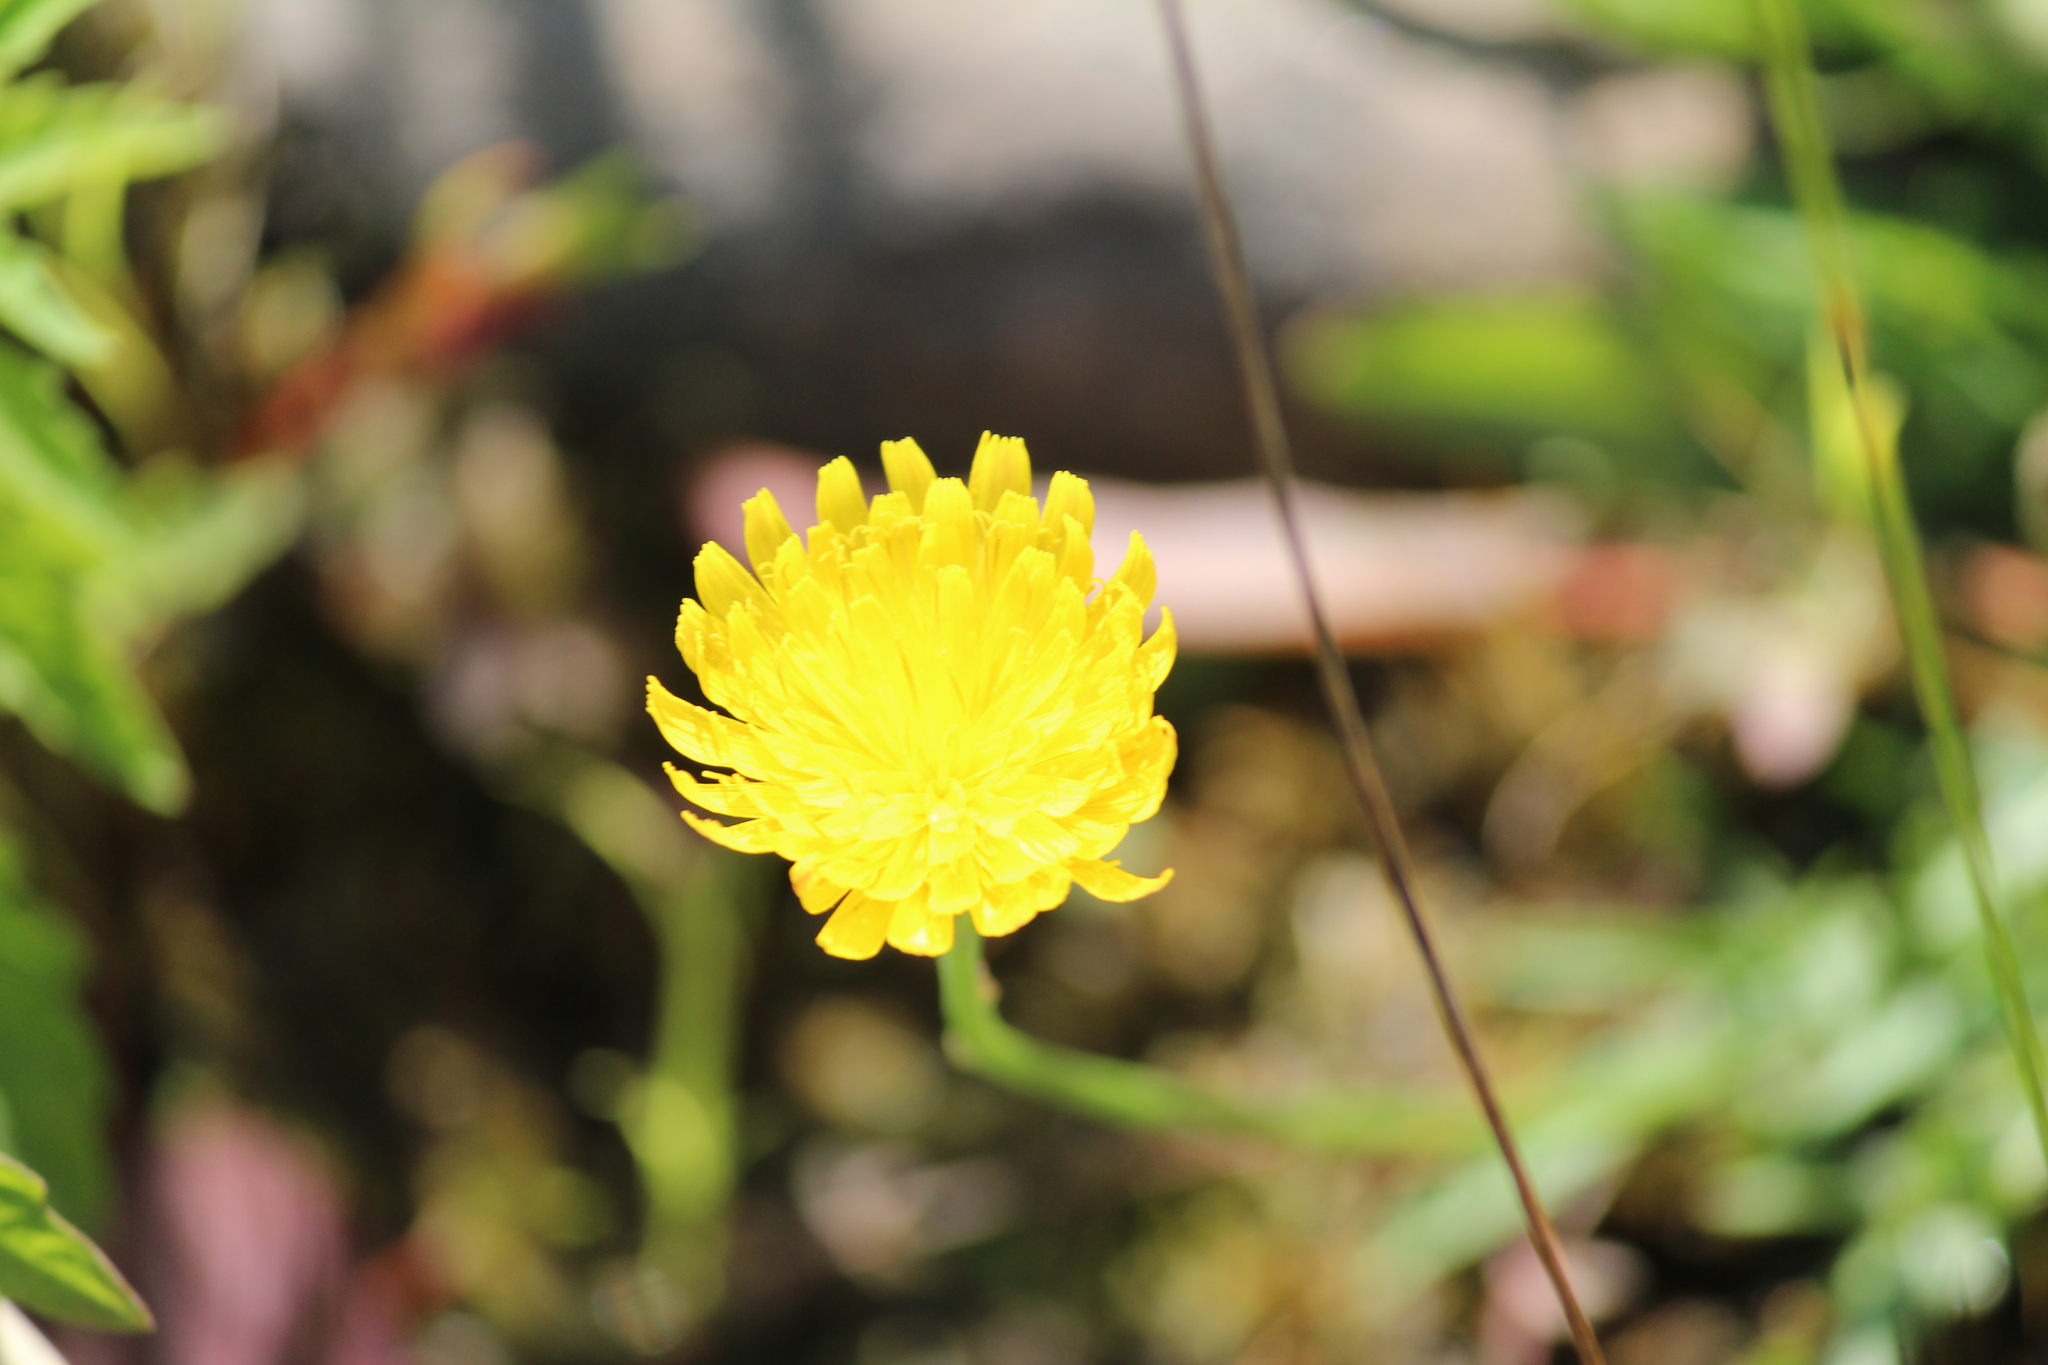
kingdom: Plantae
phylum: Tracheophyta
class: Magnoliopsida
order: Asterales
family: Asteraceae
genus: Scorzoneroides
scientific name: Scorzoneroides autumnalis
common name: Autumn hawkbit
